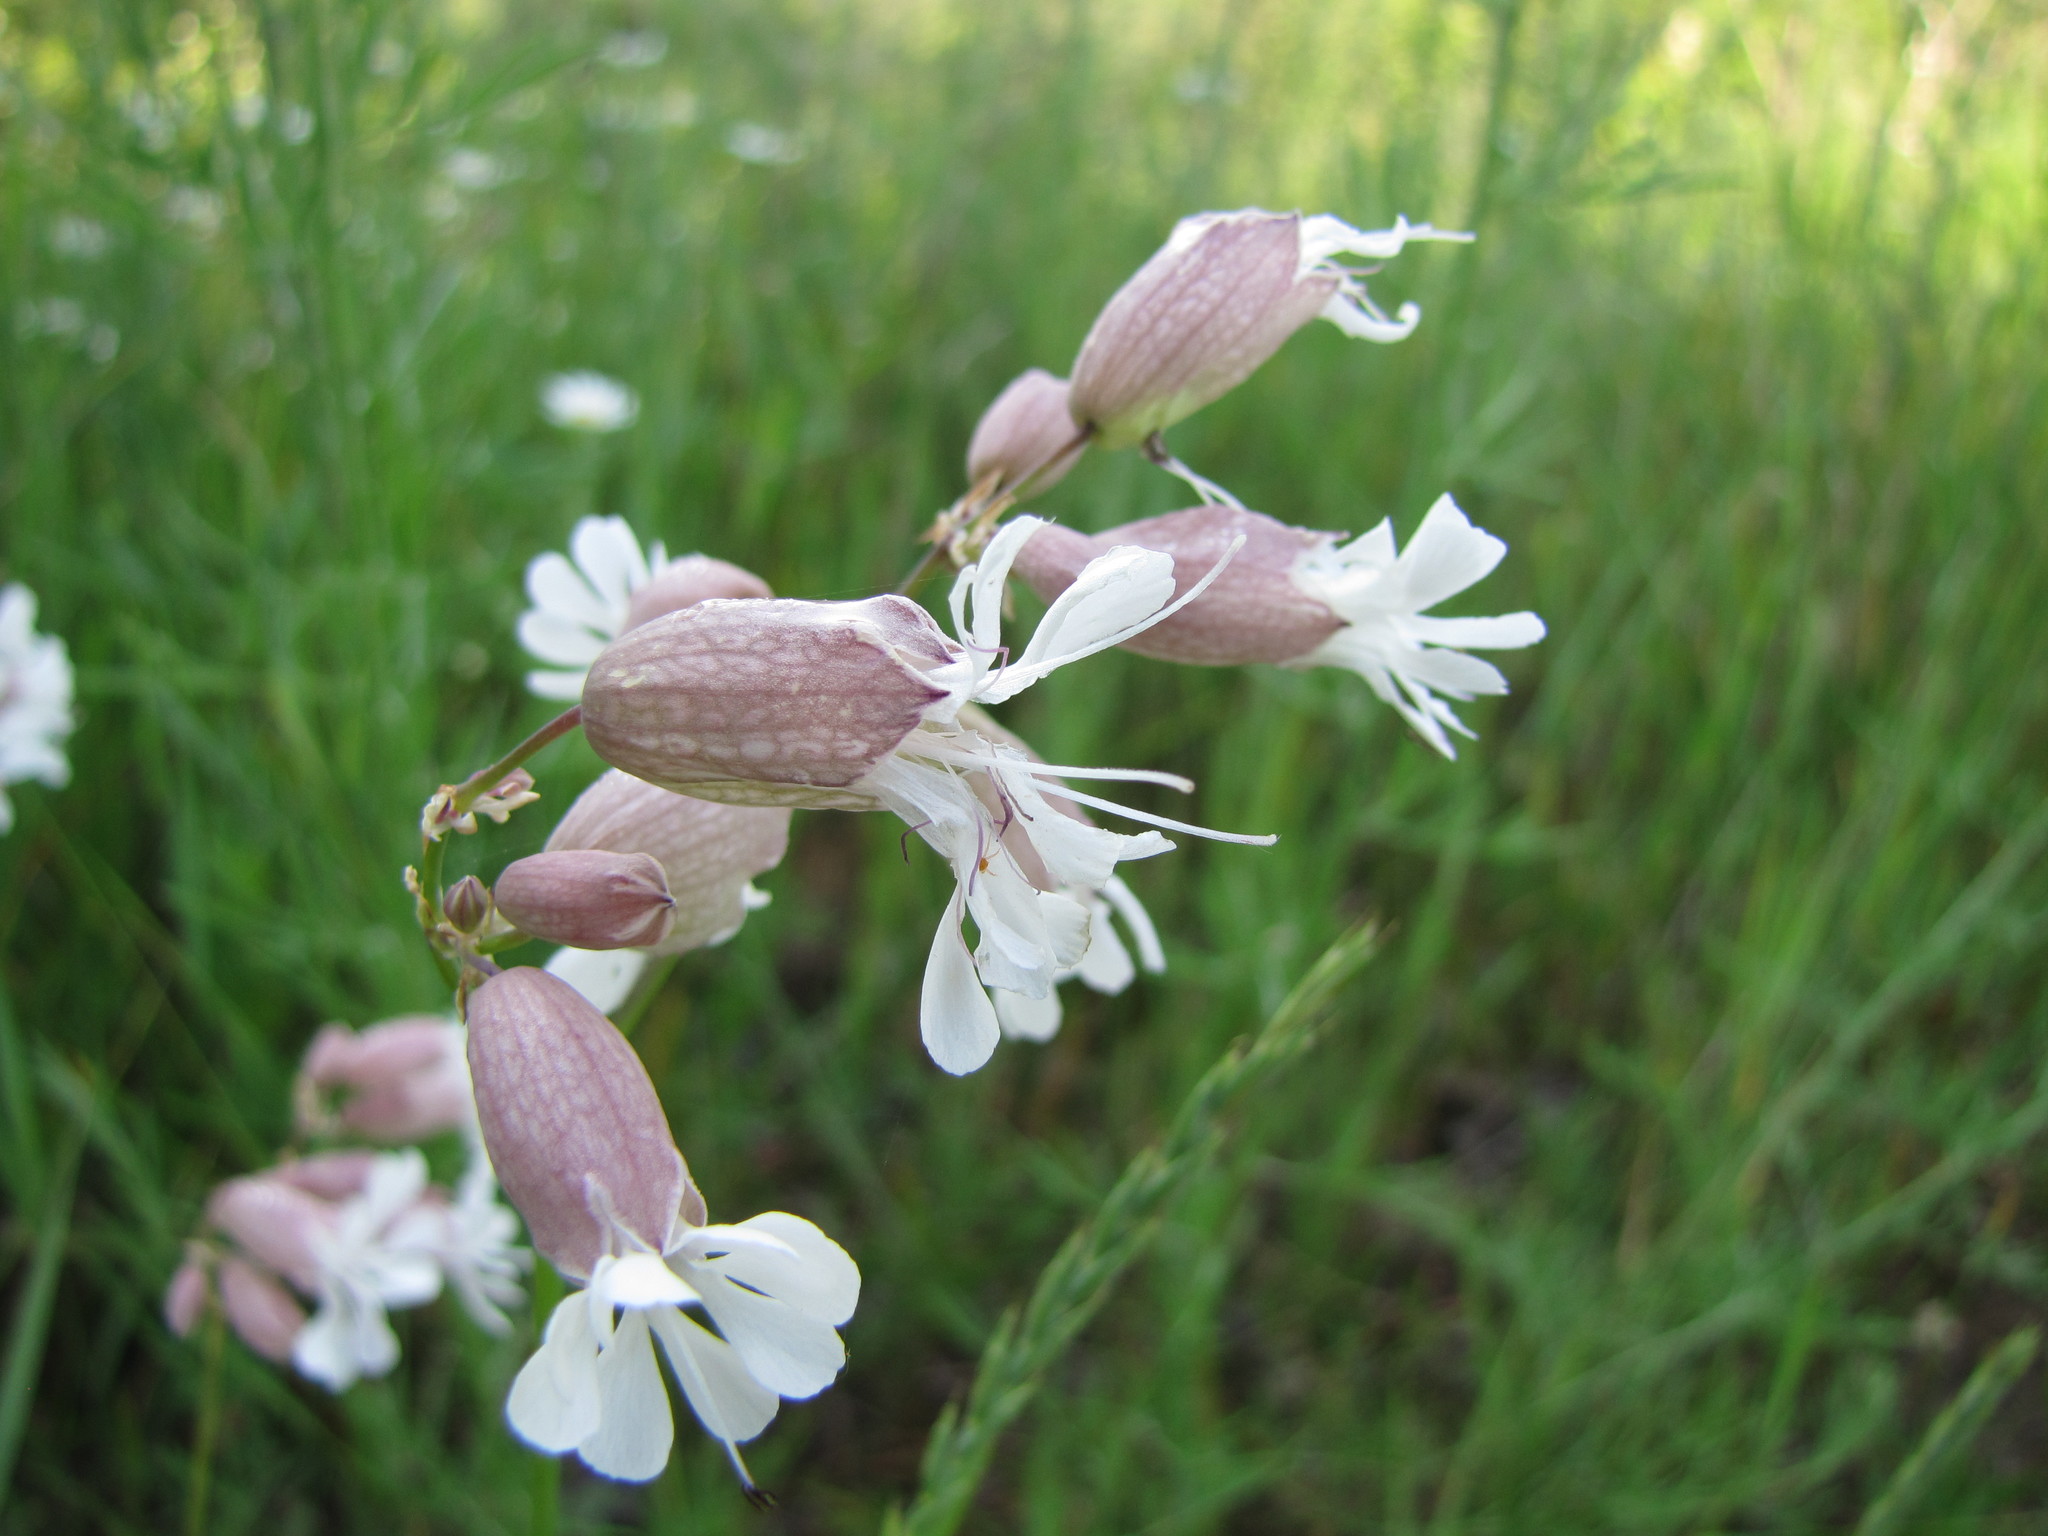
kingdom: Plantae
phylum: Tracheophyta
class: Magnoliopsida
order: Caryophyllales
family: Caryophyllaceae
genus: Silene
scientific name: Silene vulgaris
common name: Bladder campion
